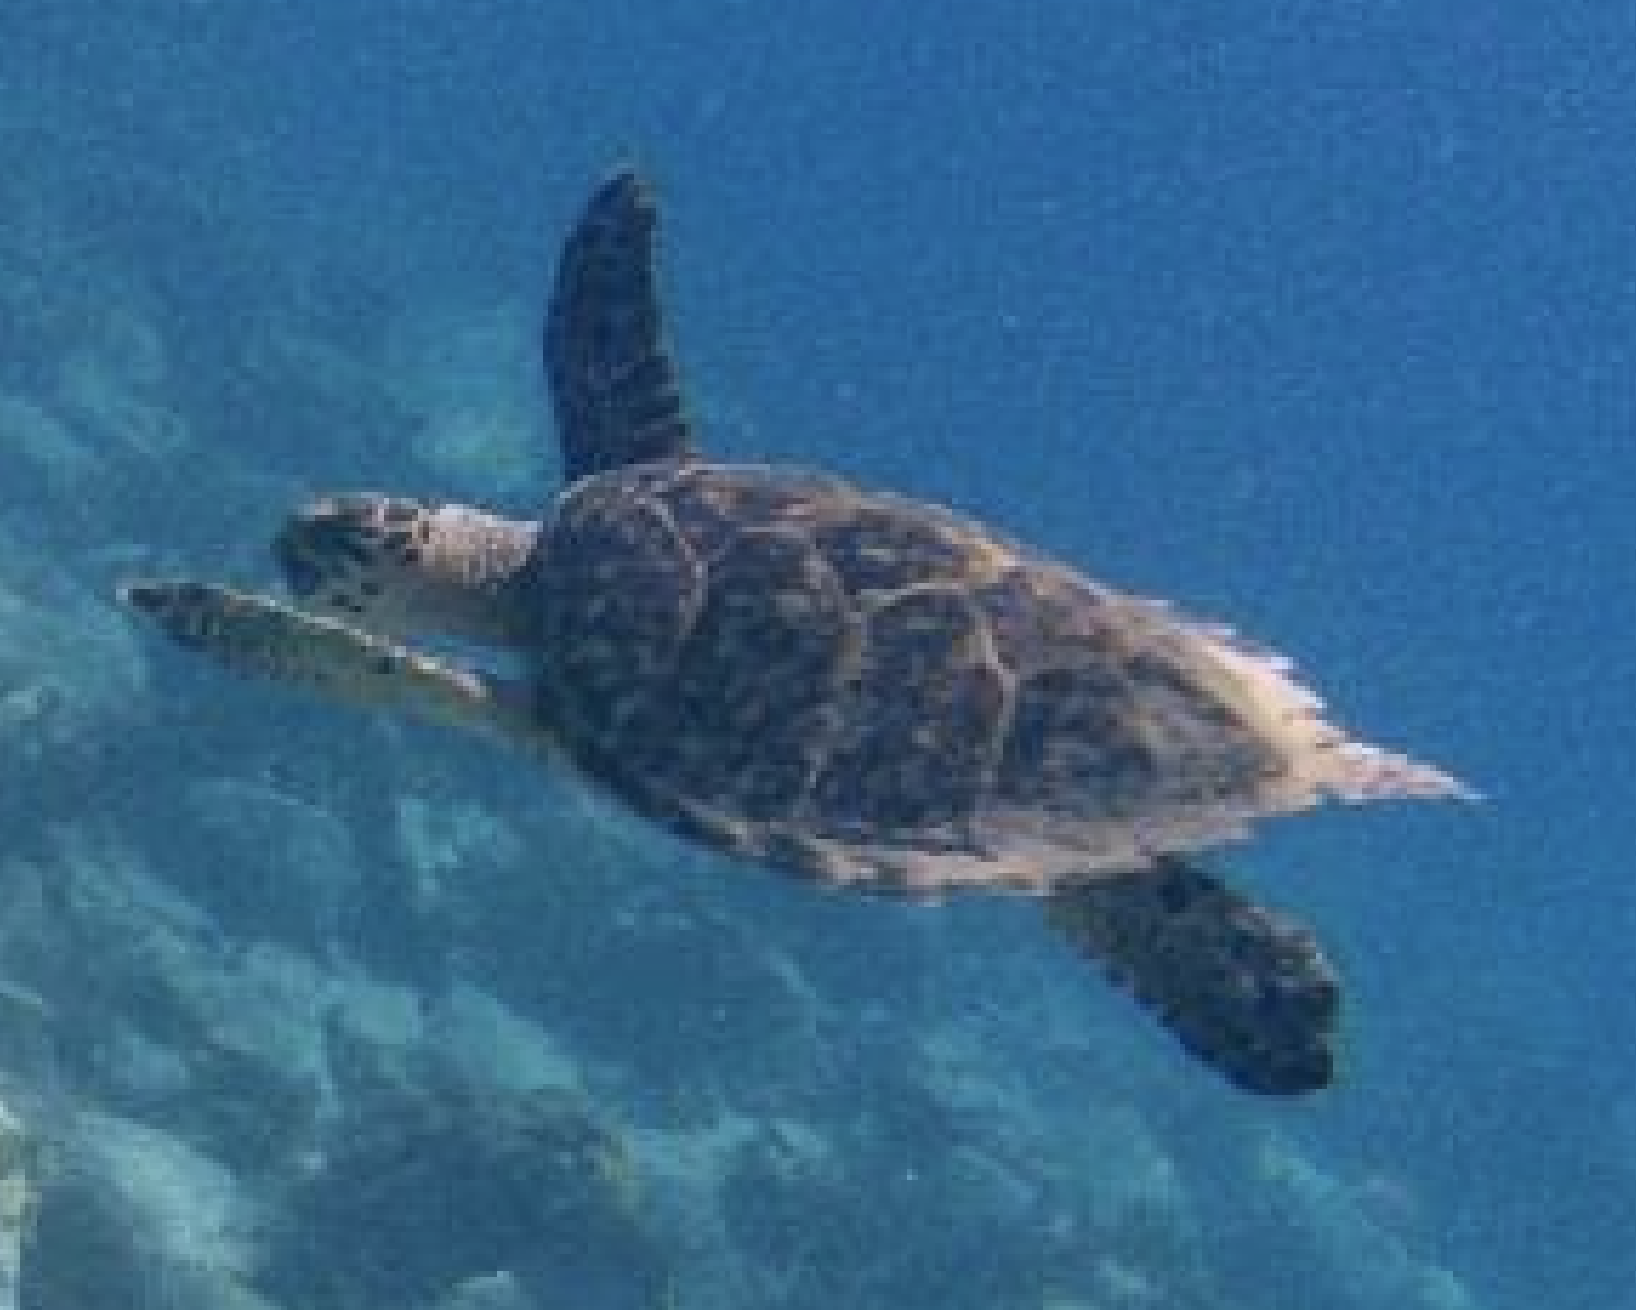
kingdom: Animalia
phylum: Chordata
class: Testudines
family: Cheloniidae
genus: Eretmochelys
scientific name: Eretmochelys imbricata
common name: Hawksbill turtle
